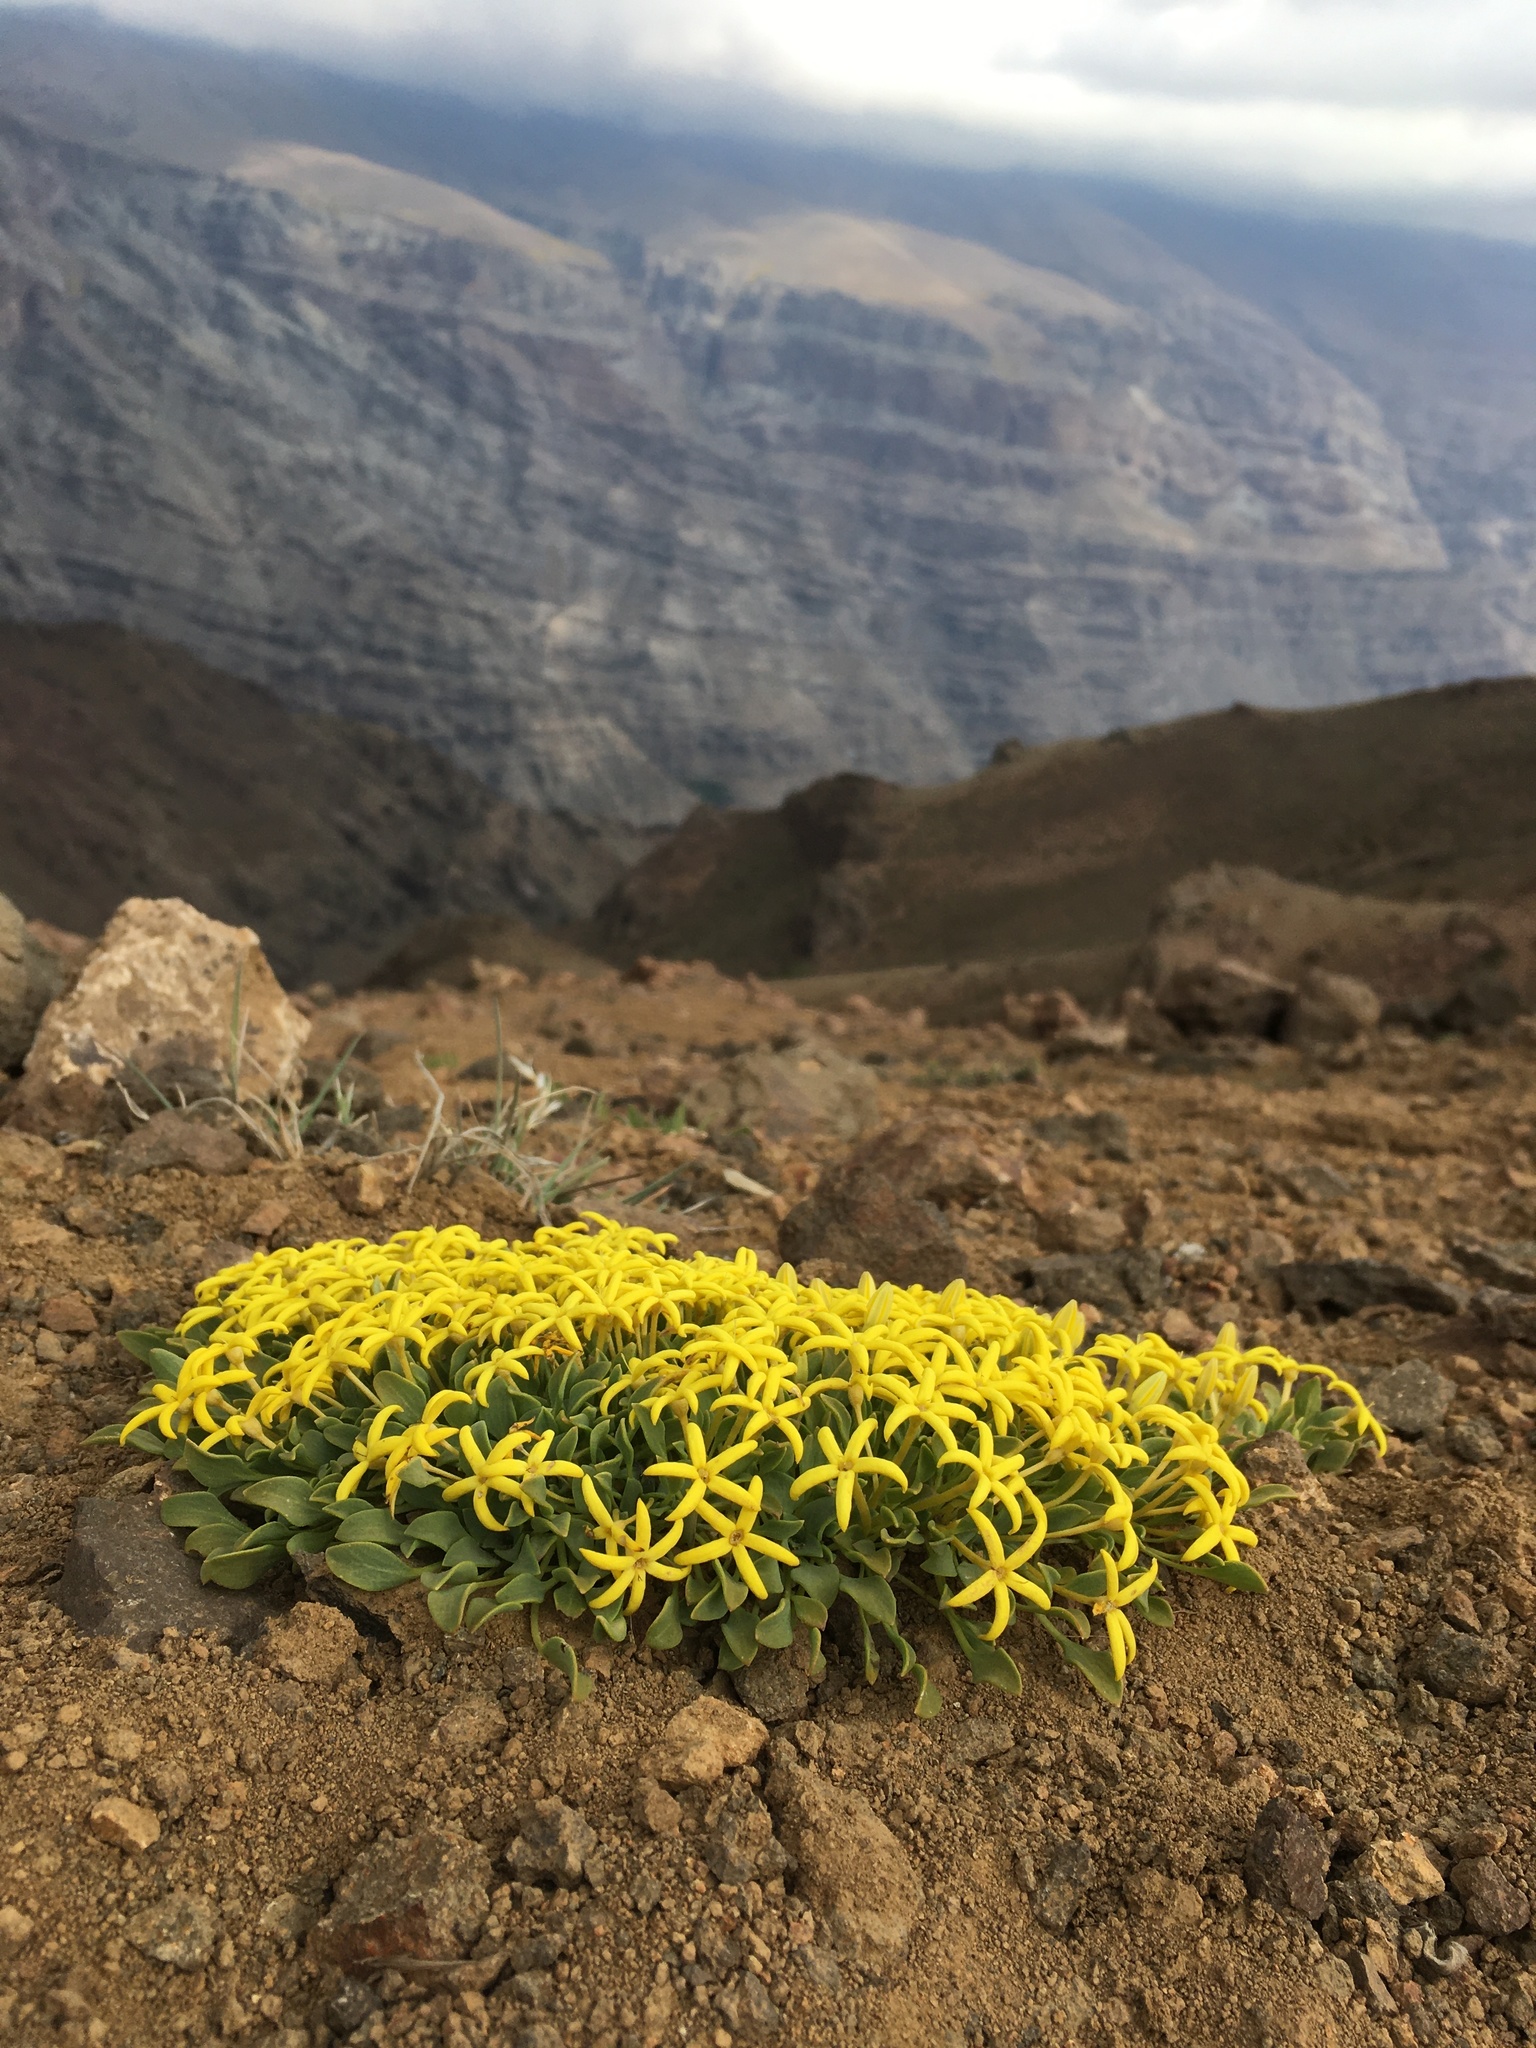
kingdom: Plantae
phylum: Tracheophyta
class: Magnoliopsida
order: Gentianales
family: Rubiaceae
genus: Oreopolus
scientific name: Oreopolus glacialis
